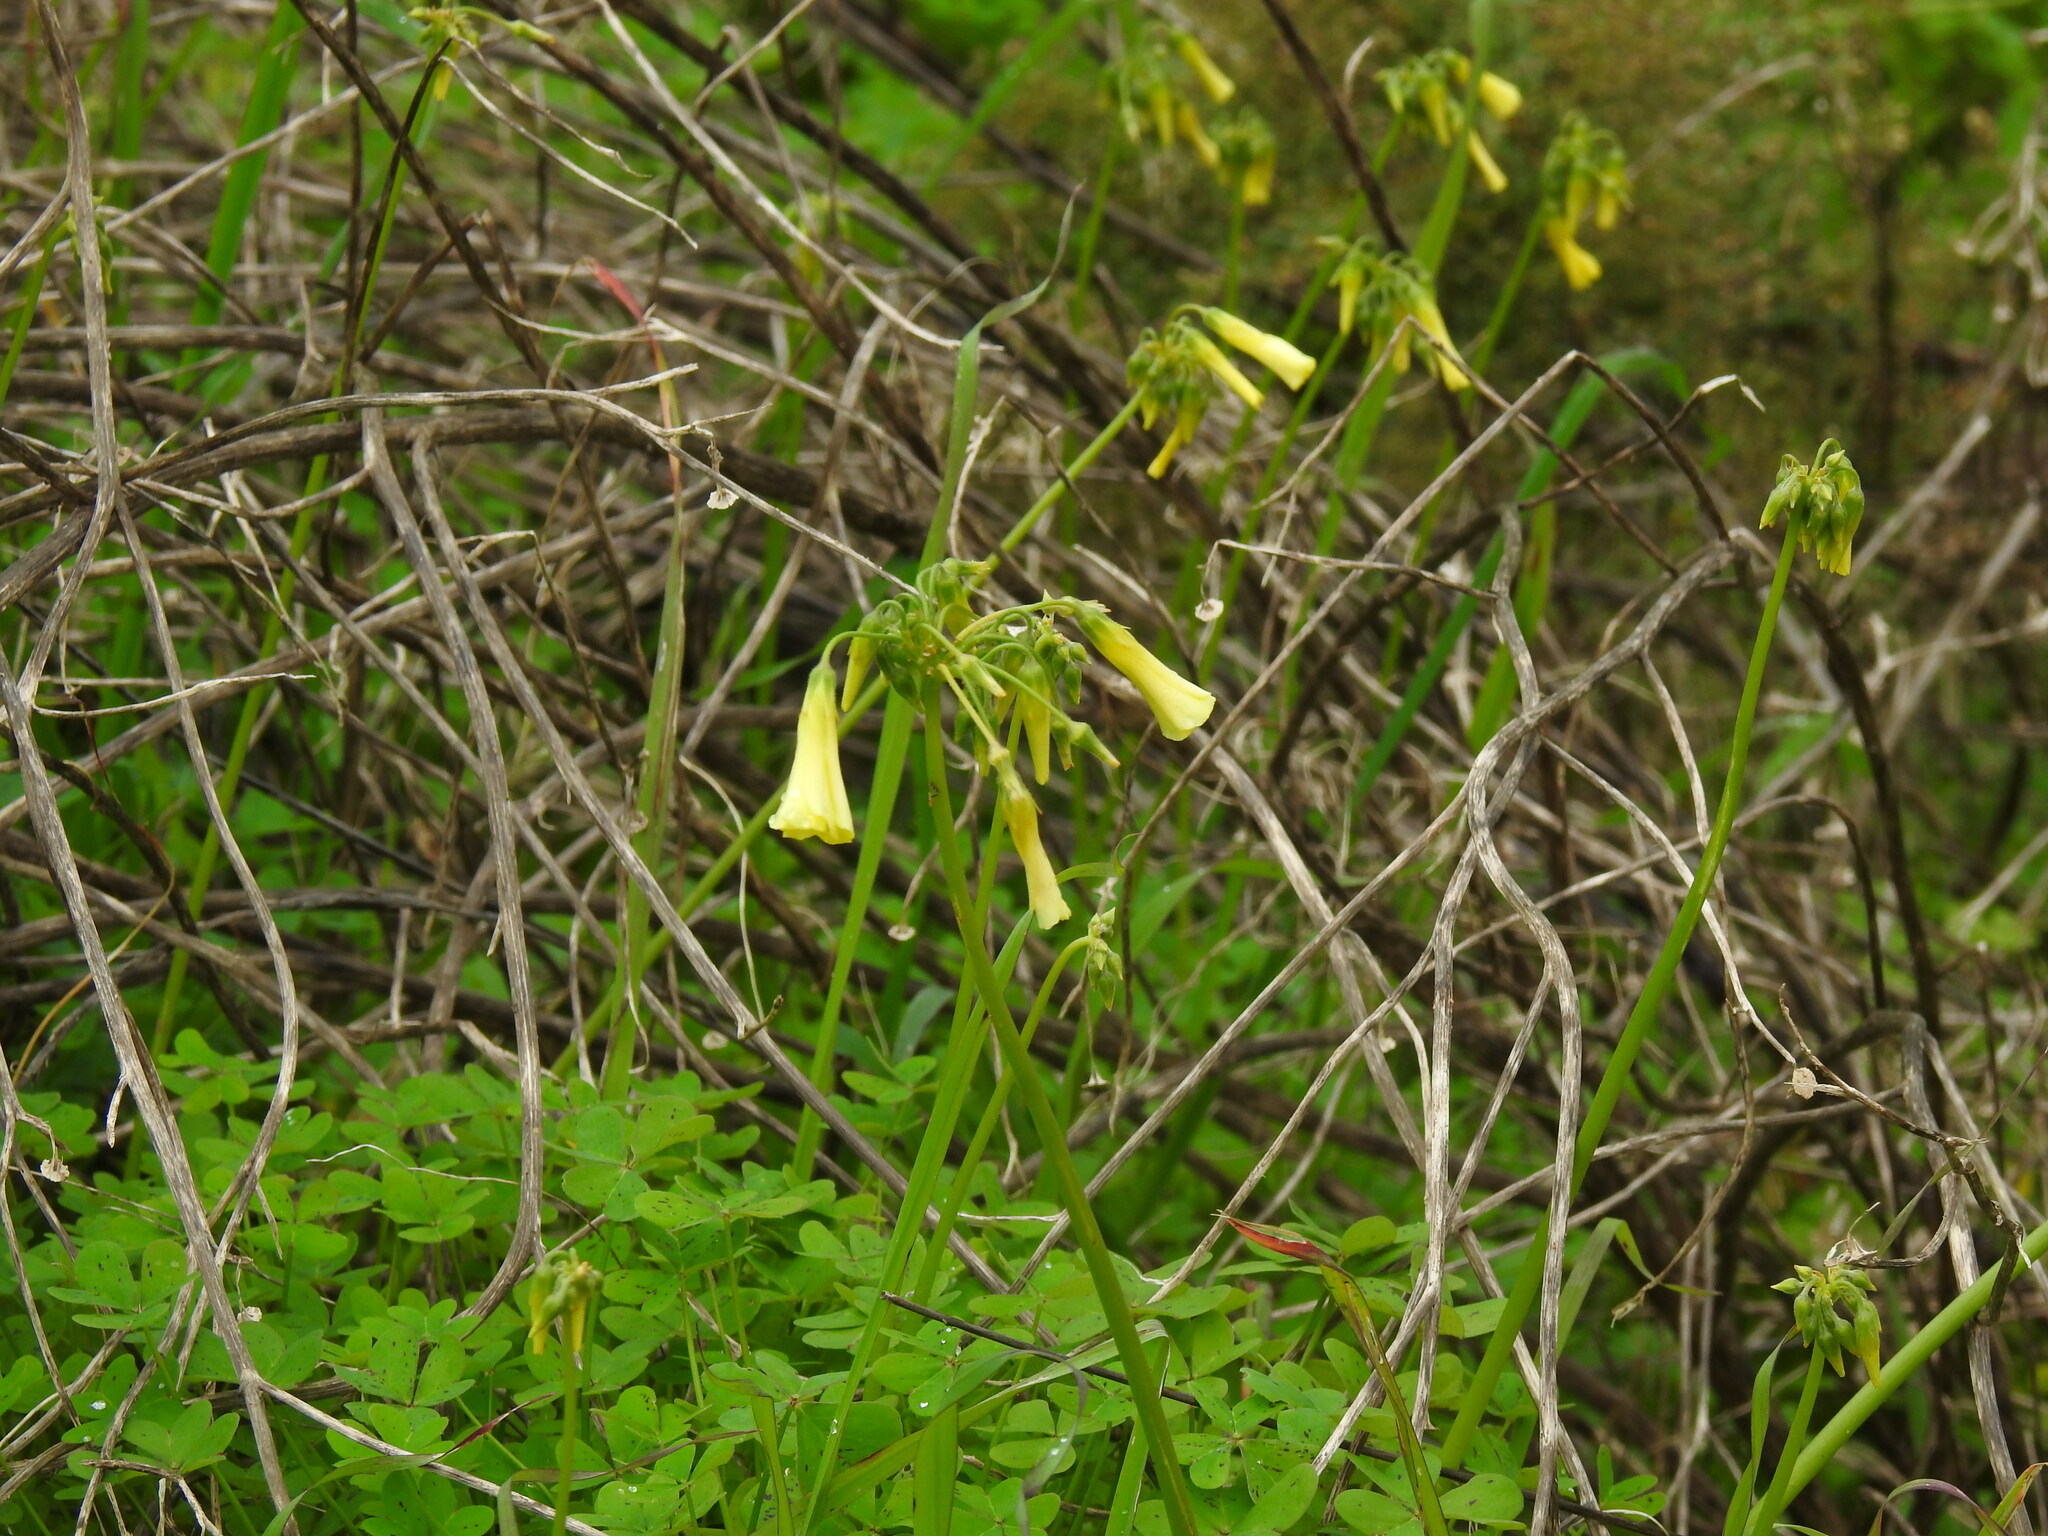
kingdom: Plantae
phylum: Tracheophyta
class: Magnoliopsida
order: Oxalidales
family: Oxalidaceae
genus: Oxalis
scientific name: Oxalis pes-caprae
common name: Bermuda-buttercup
